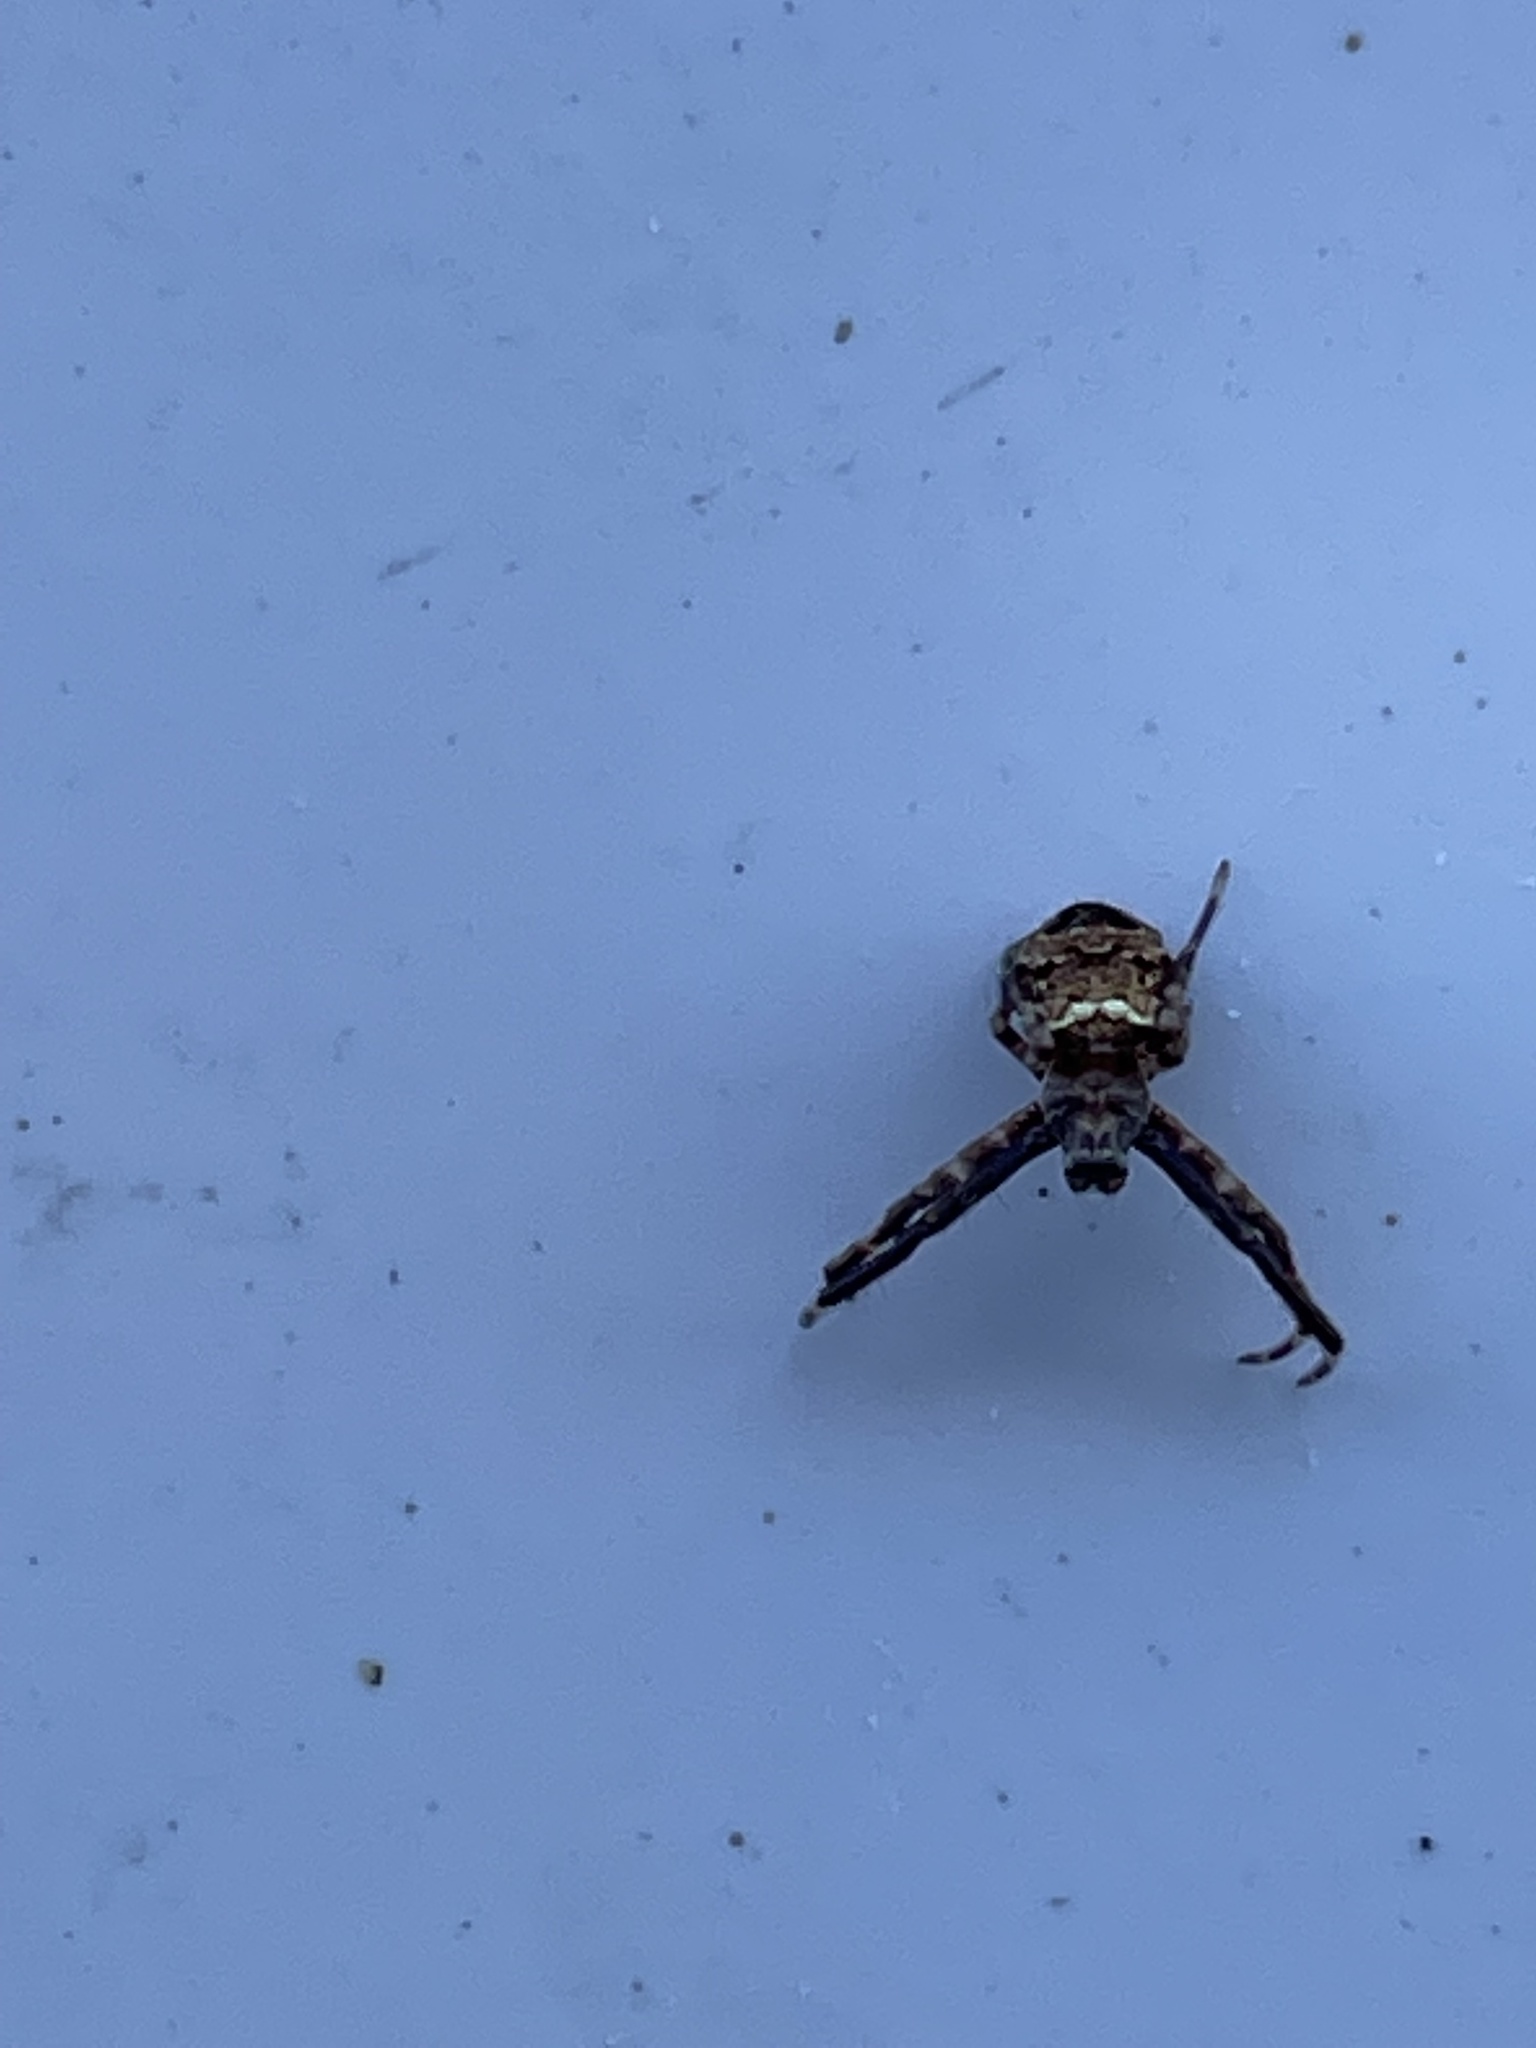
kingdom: Animalia
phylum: Arthropoda
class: Arachnida
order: Araneae
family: Araneidae
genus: Gea
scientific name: Gea heptagon
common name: Orb weavers
